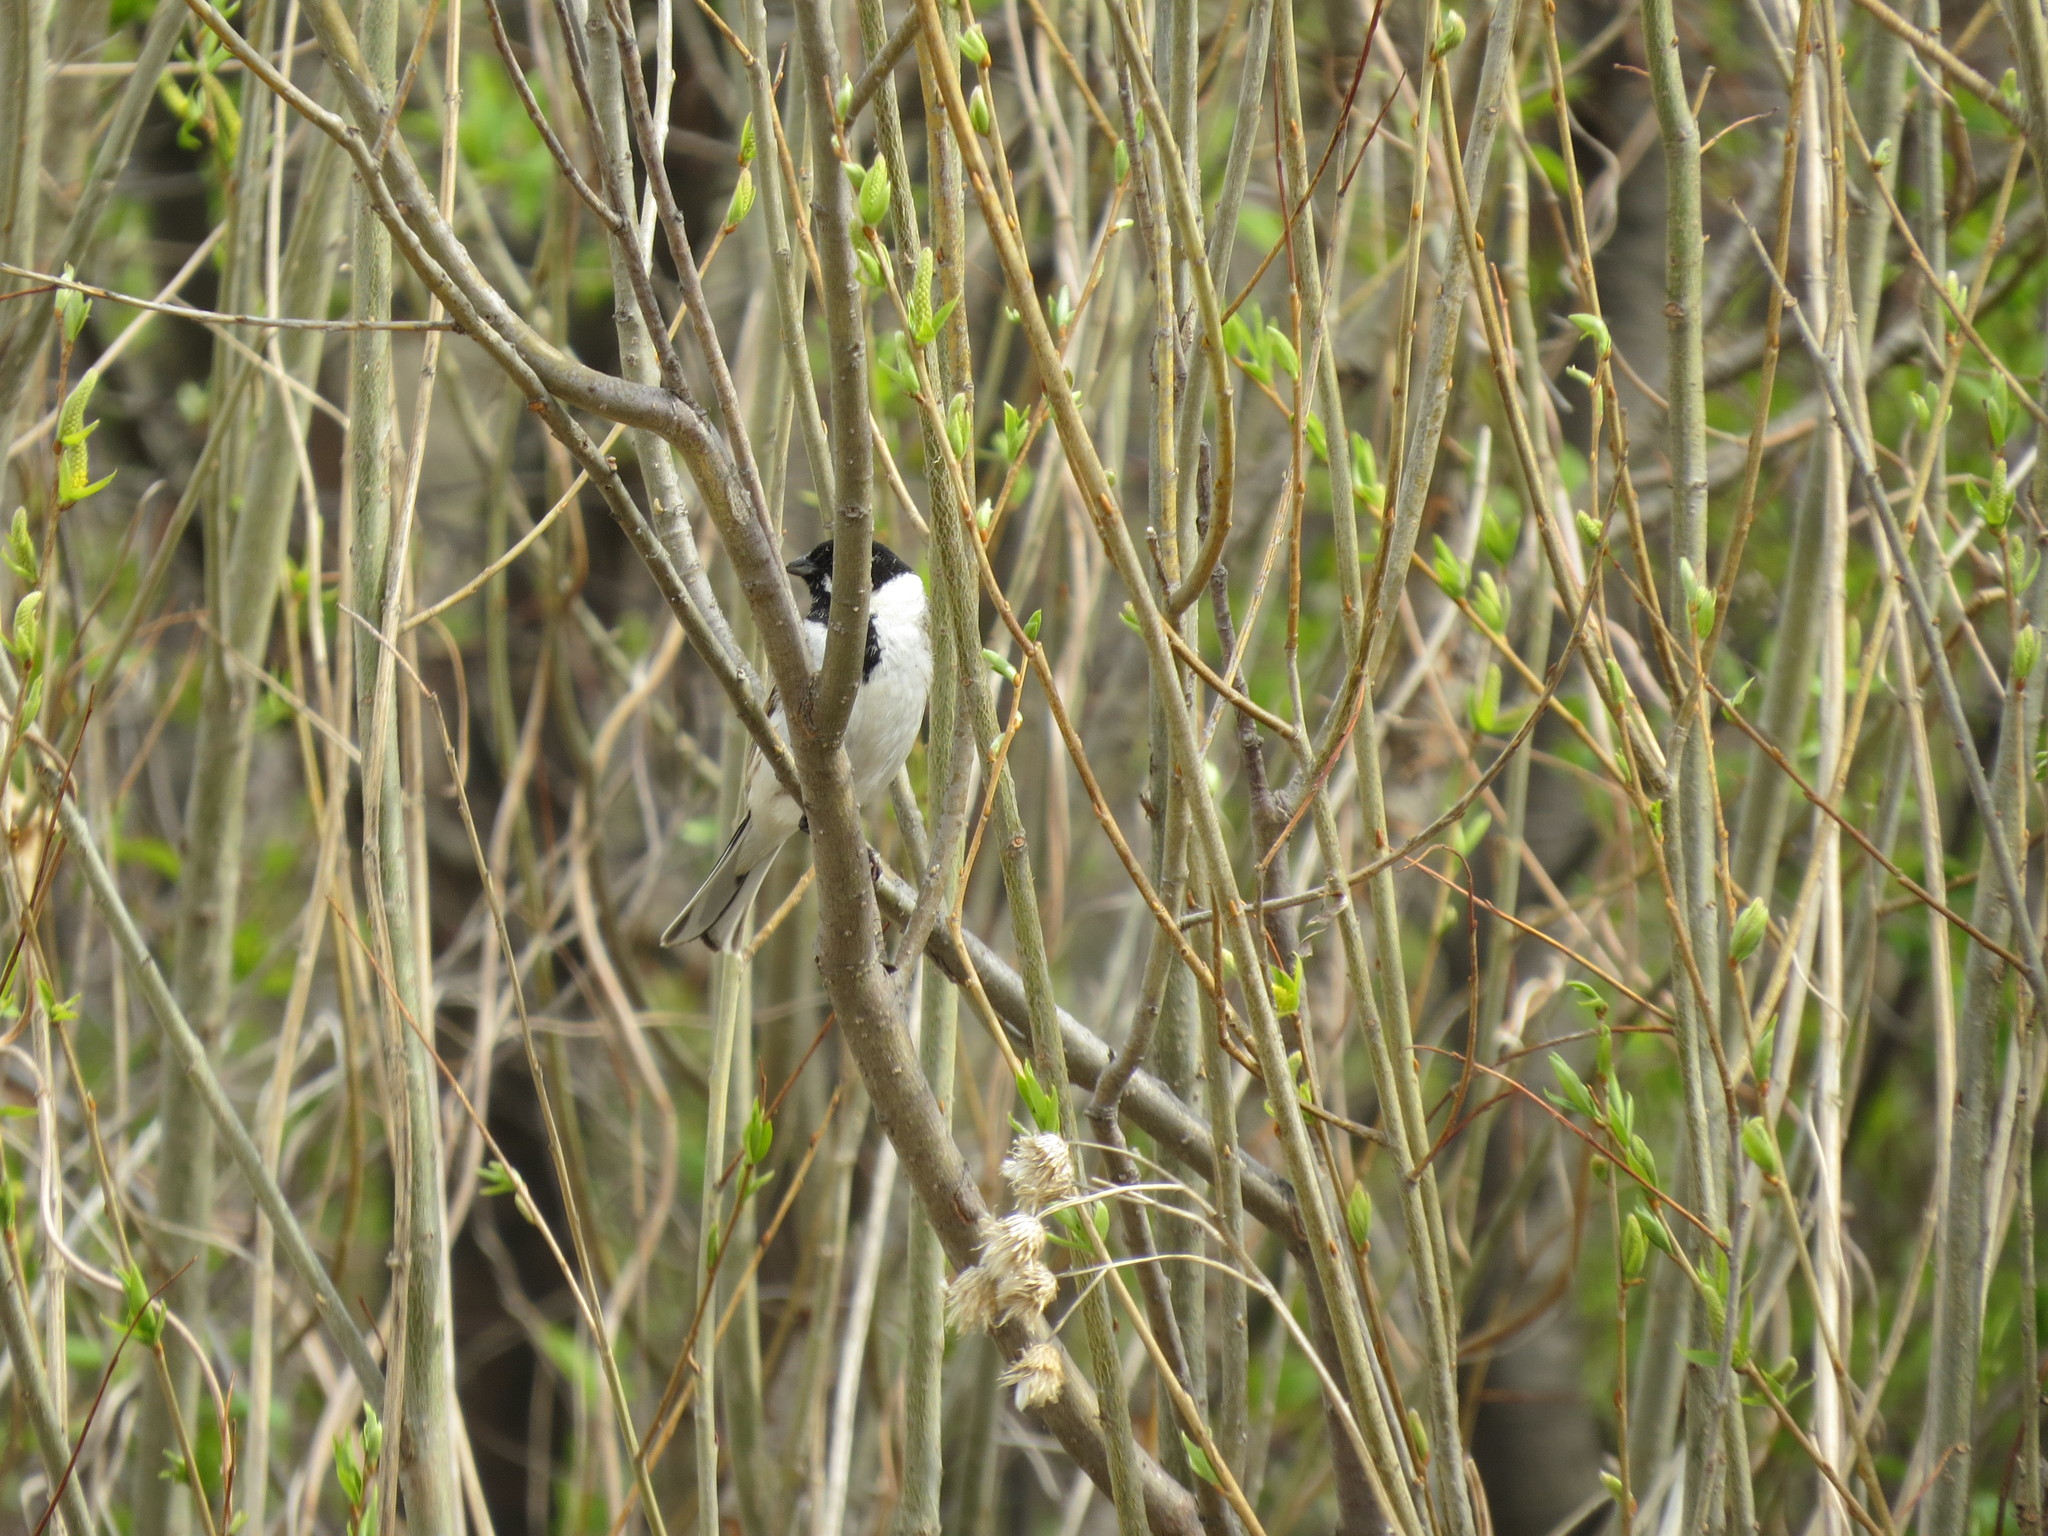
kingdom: Animalia
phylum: Chordata
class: Aves
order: Passeriformes
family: Emberizidae
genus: Emberiza
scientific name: Emberiza schoeniclus
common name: Reed bunting
